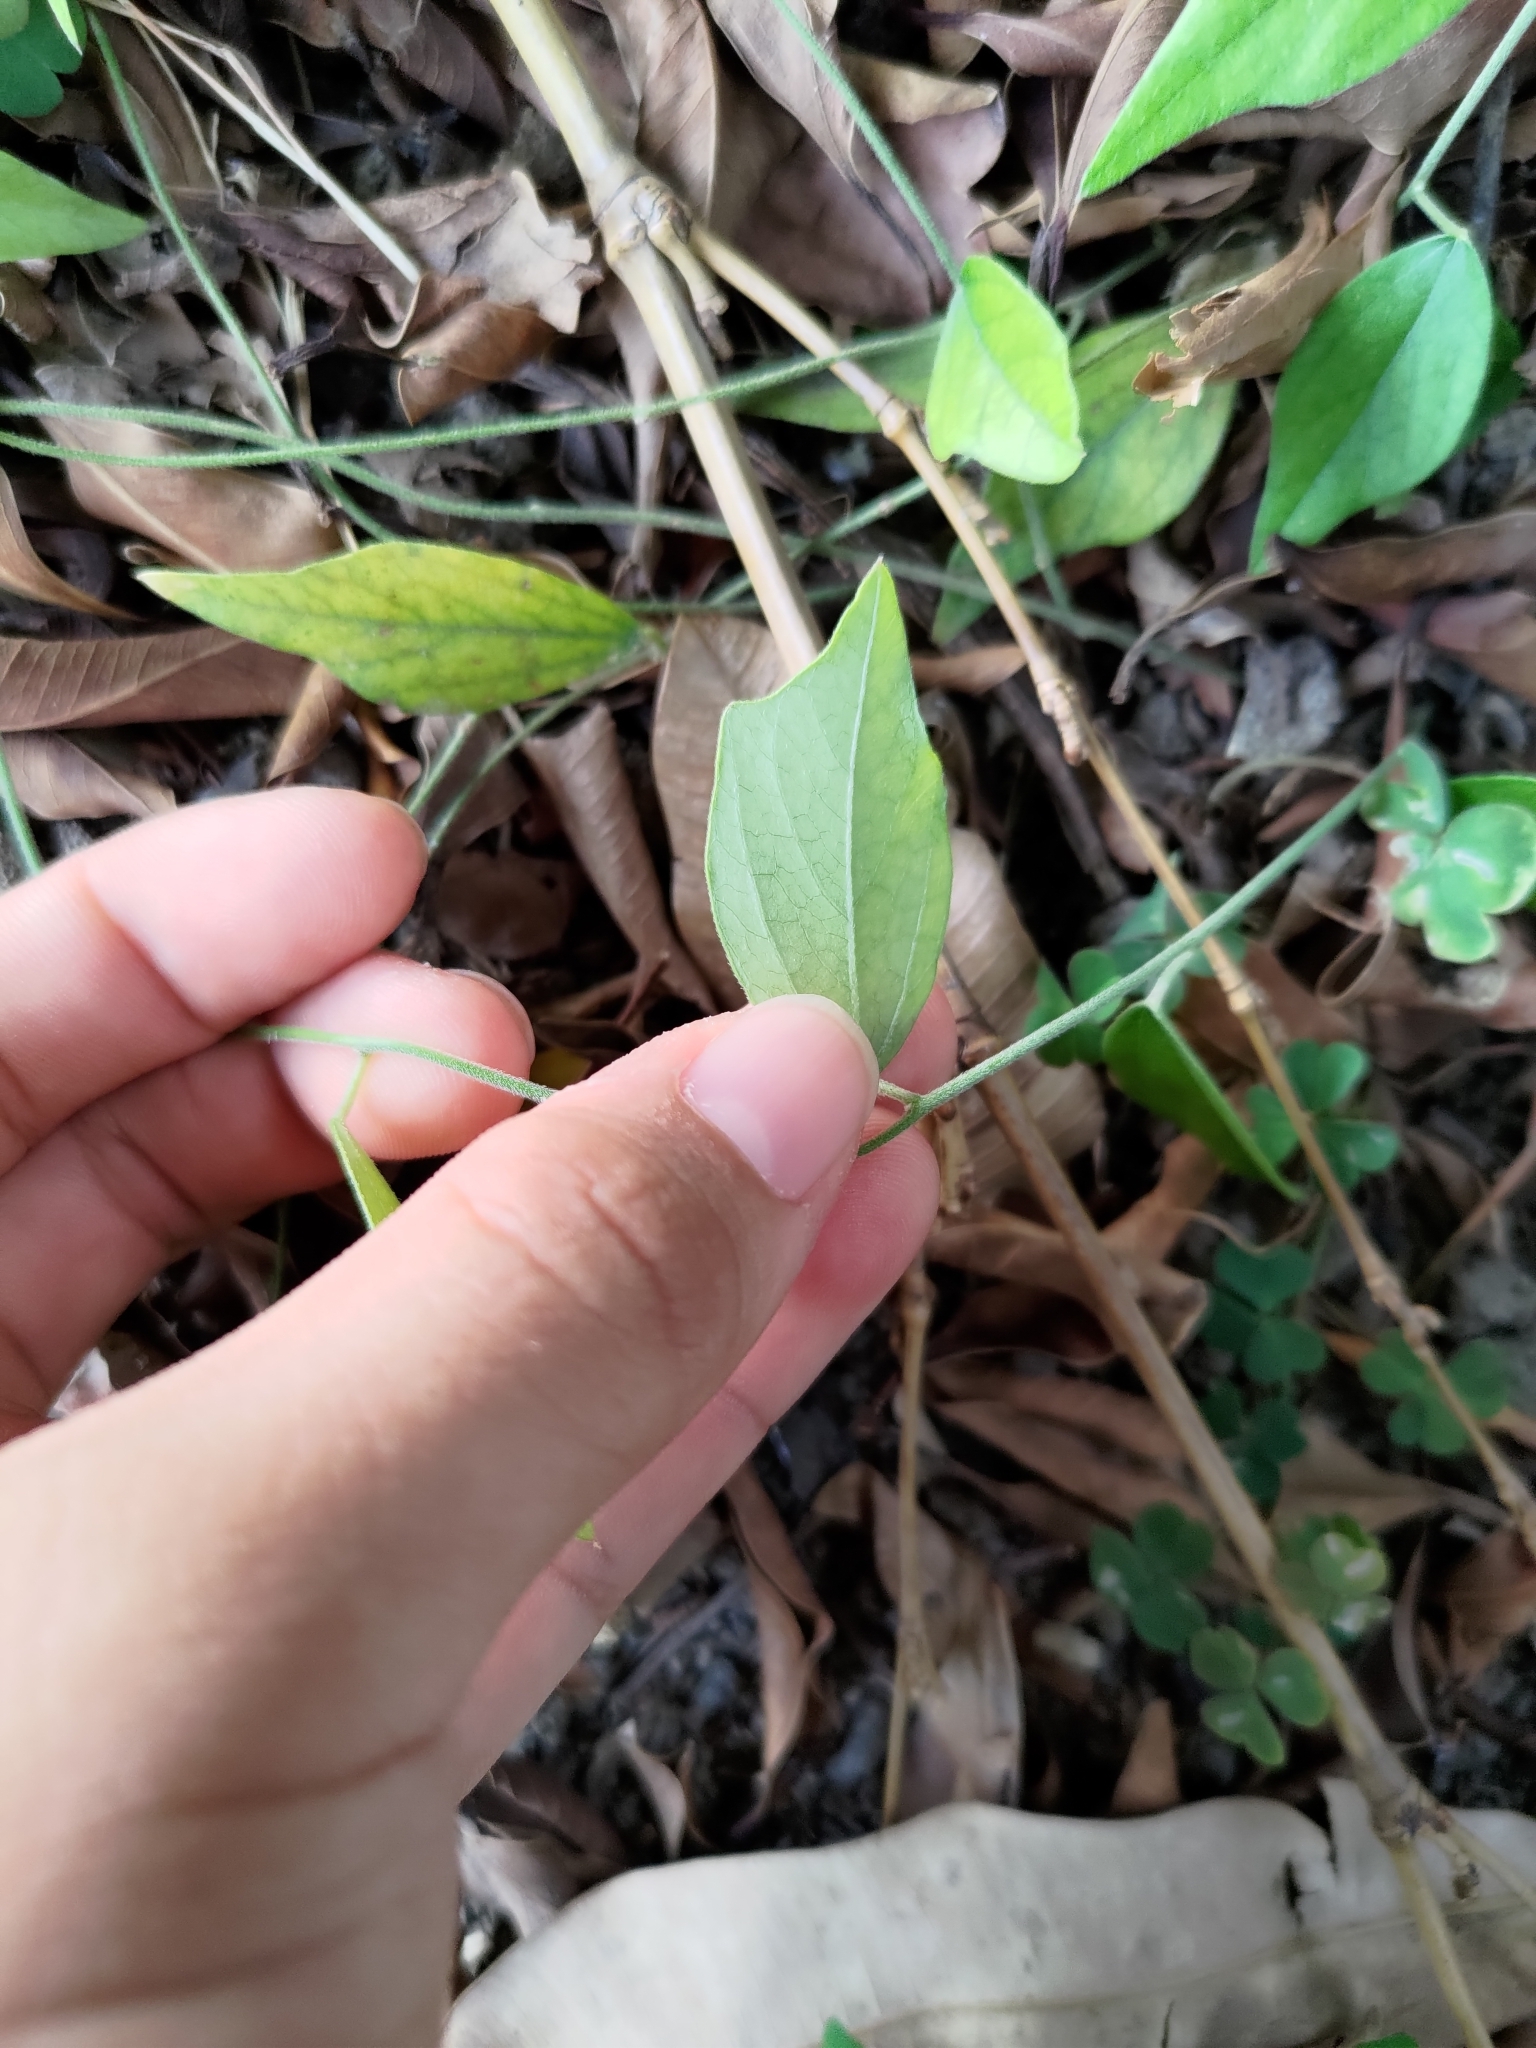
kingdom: Plantae
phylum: Tracheophyta
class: Magnoliopsida
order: Ranunculales
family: Menispermaceae
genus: Cocculus
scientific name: Cocculus orbiculatus
